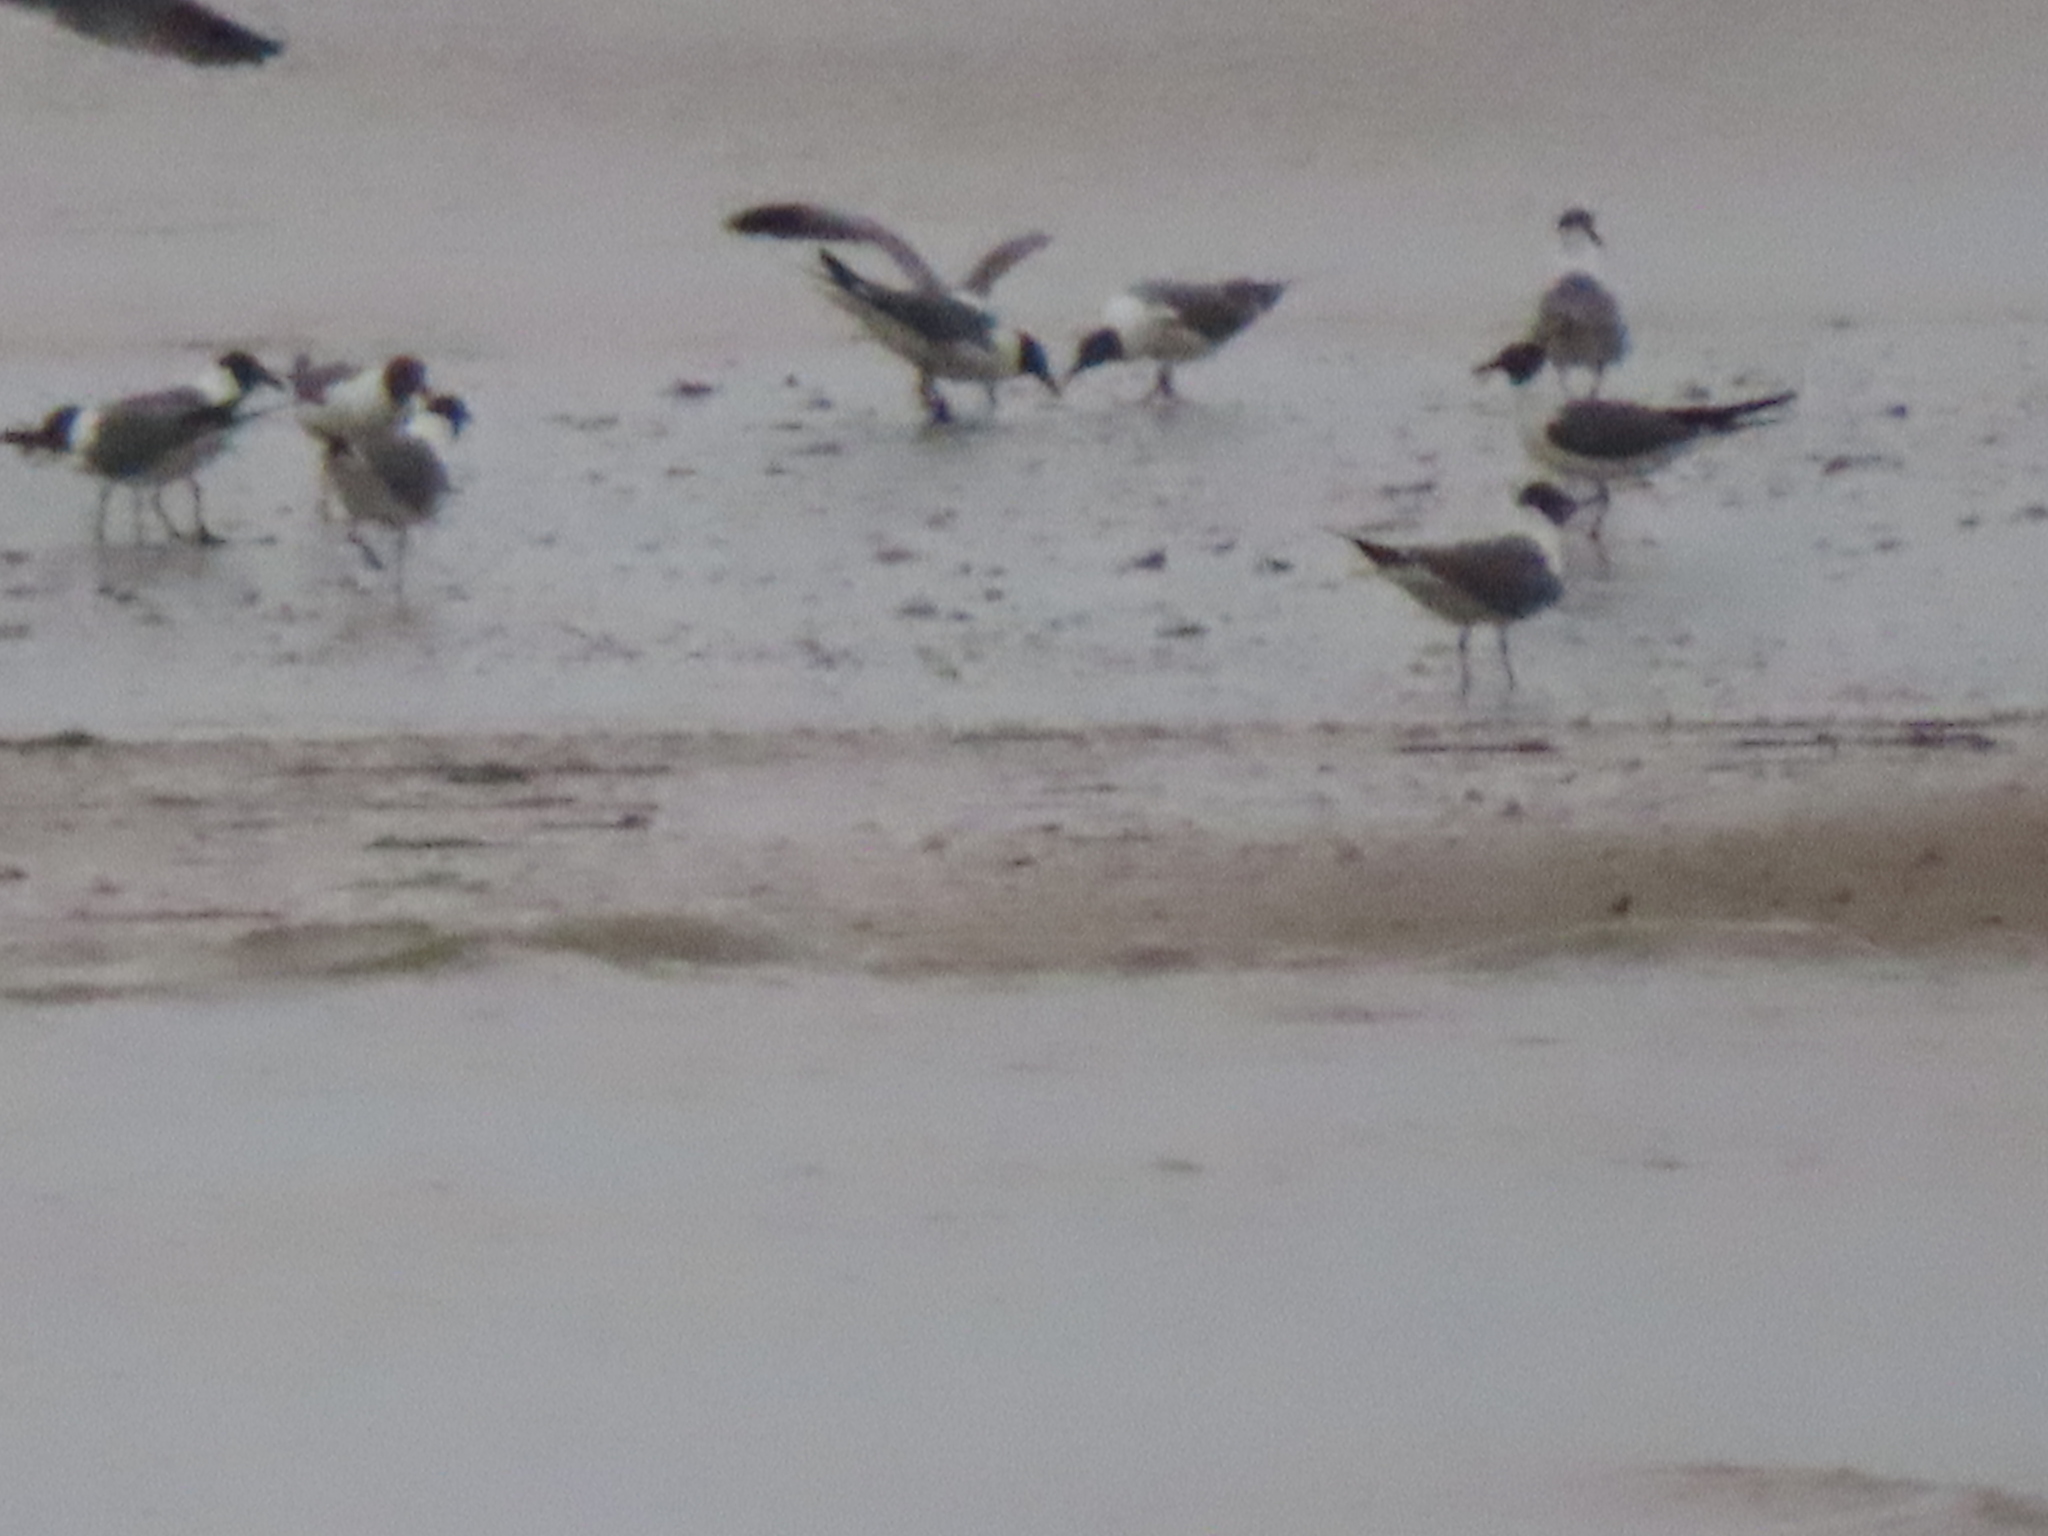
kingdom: Animalia
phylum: Chordata
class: Aves
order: Charadriiformes
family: Laridae
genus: Leucophaeus
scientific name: Leucophaeus atricilla
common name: Laughing gull
